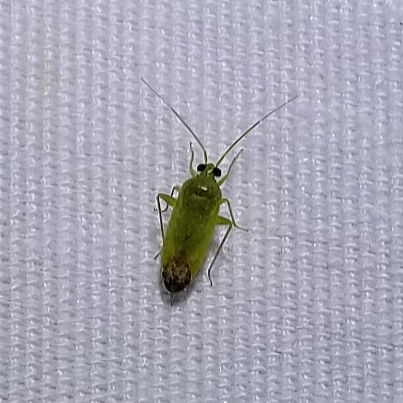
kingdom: Animalia
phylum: Arthropoda
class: Insecta
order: Hemiptera
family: Miridae
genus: Phytocoris
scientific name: Phytocoris vanduzeei
